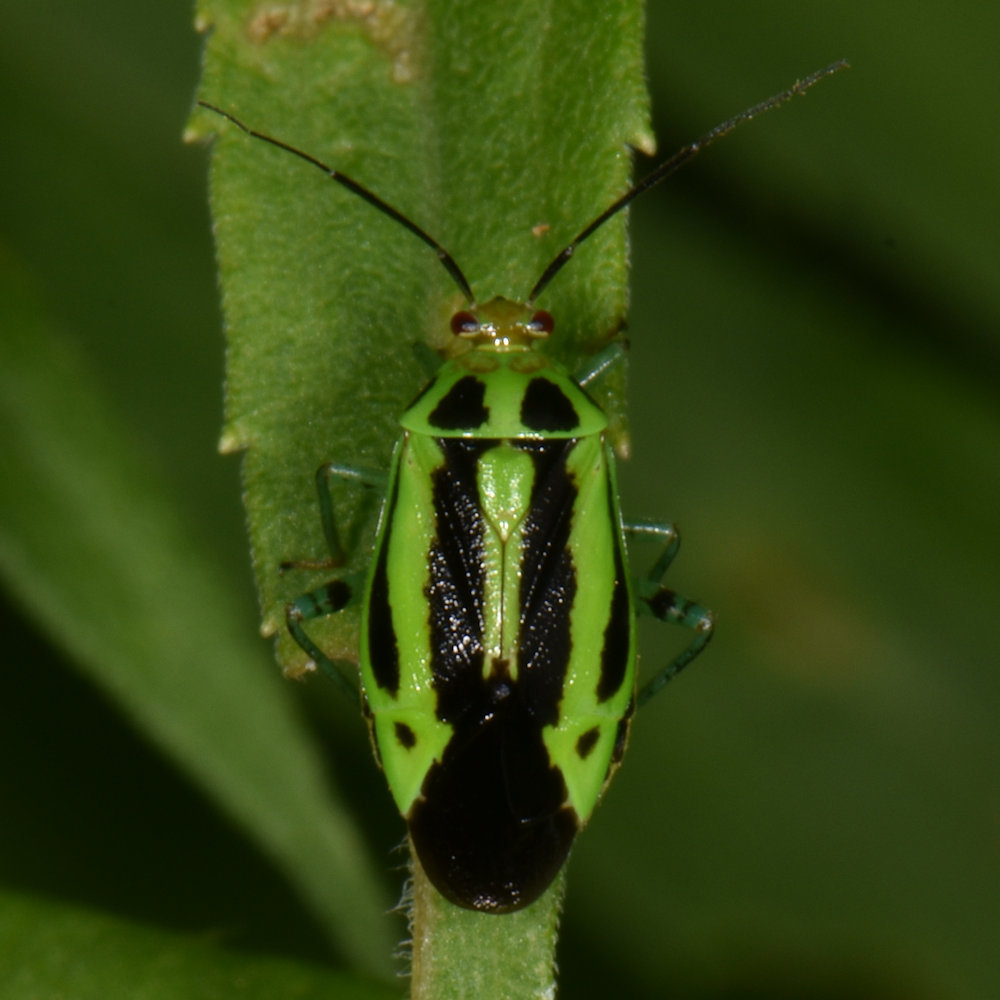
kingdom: Animalia
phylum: Arthropoda
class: Insecta
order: Hemiptera
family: Miridae
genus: Poecilocapsus
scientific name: Poecilocapsus lineatus
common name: Four-lined plant bug
